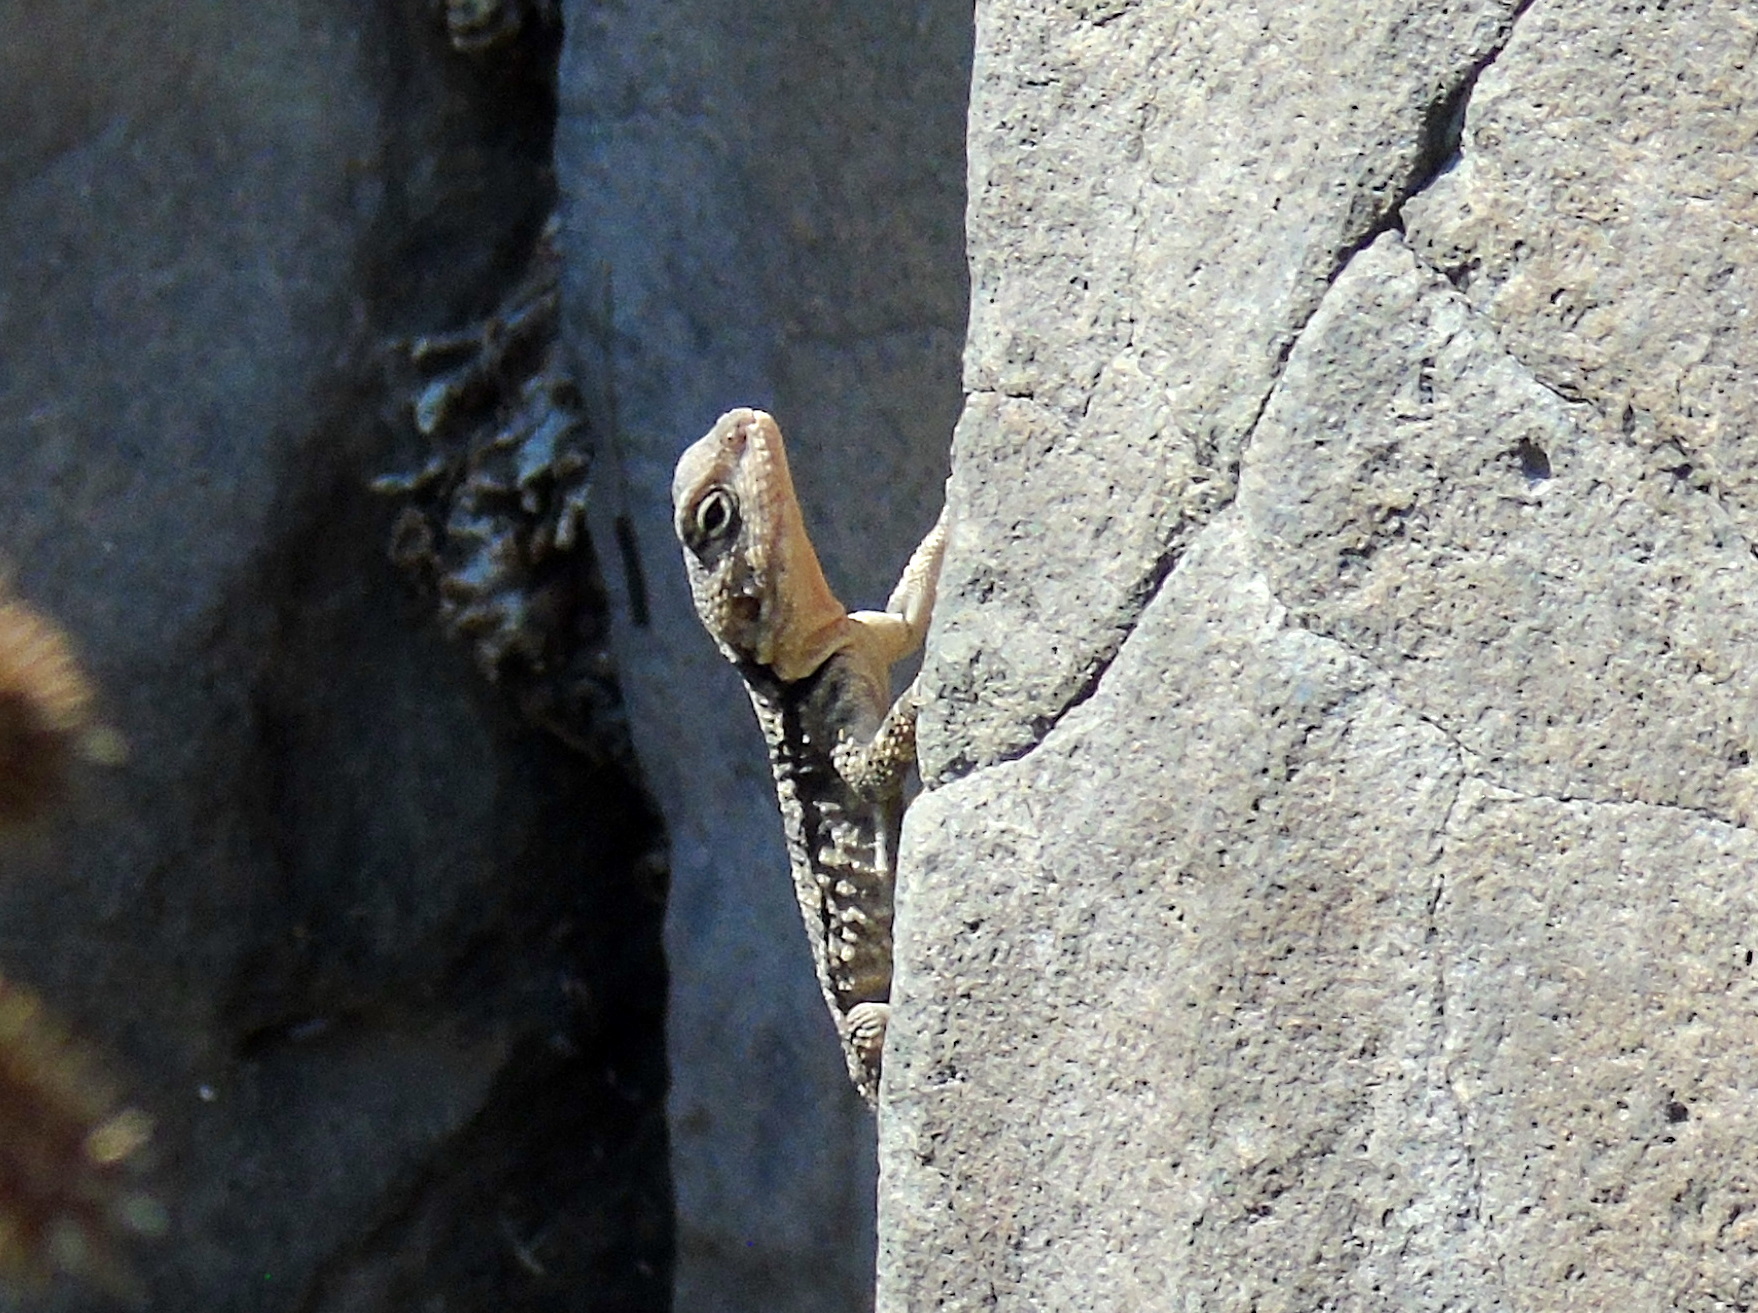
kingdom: Animalia
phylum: Chordata
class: Squamata
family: Agamidae
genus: Stellagama
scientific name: Stellagama stellio
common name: Starred agama
